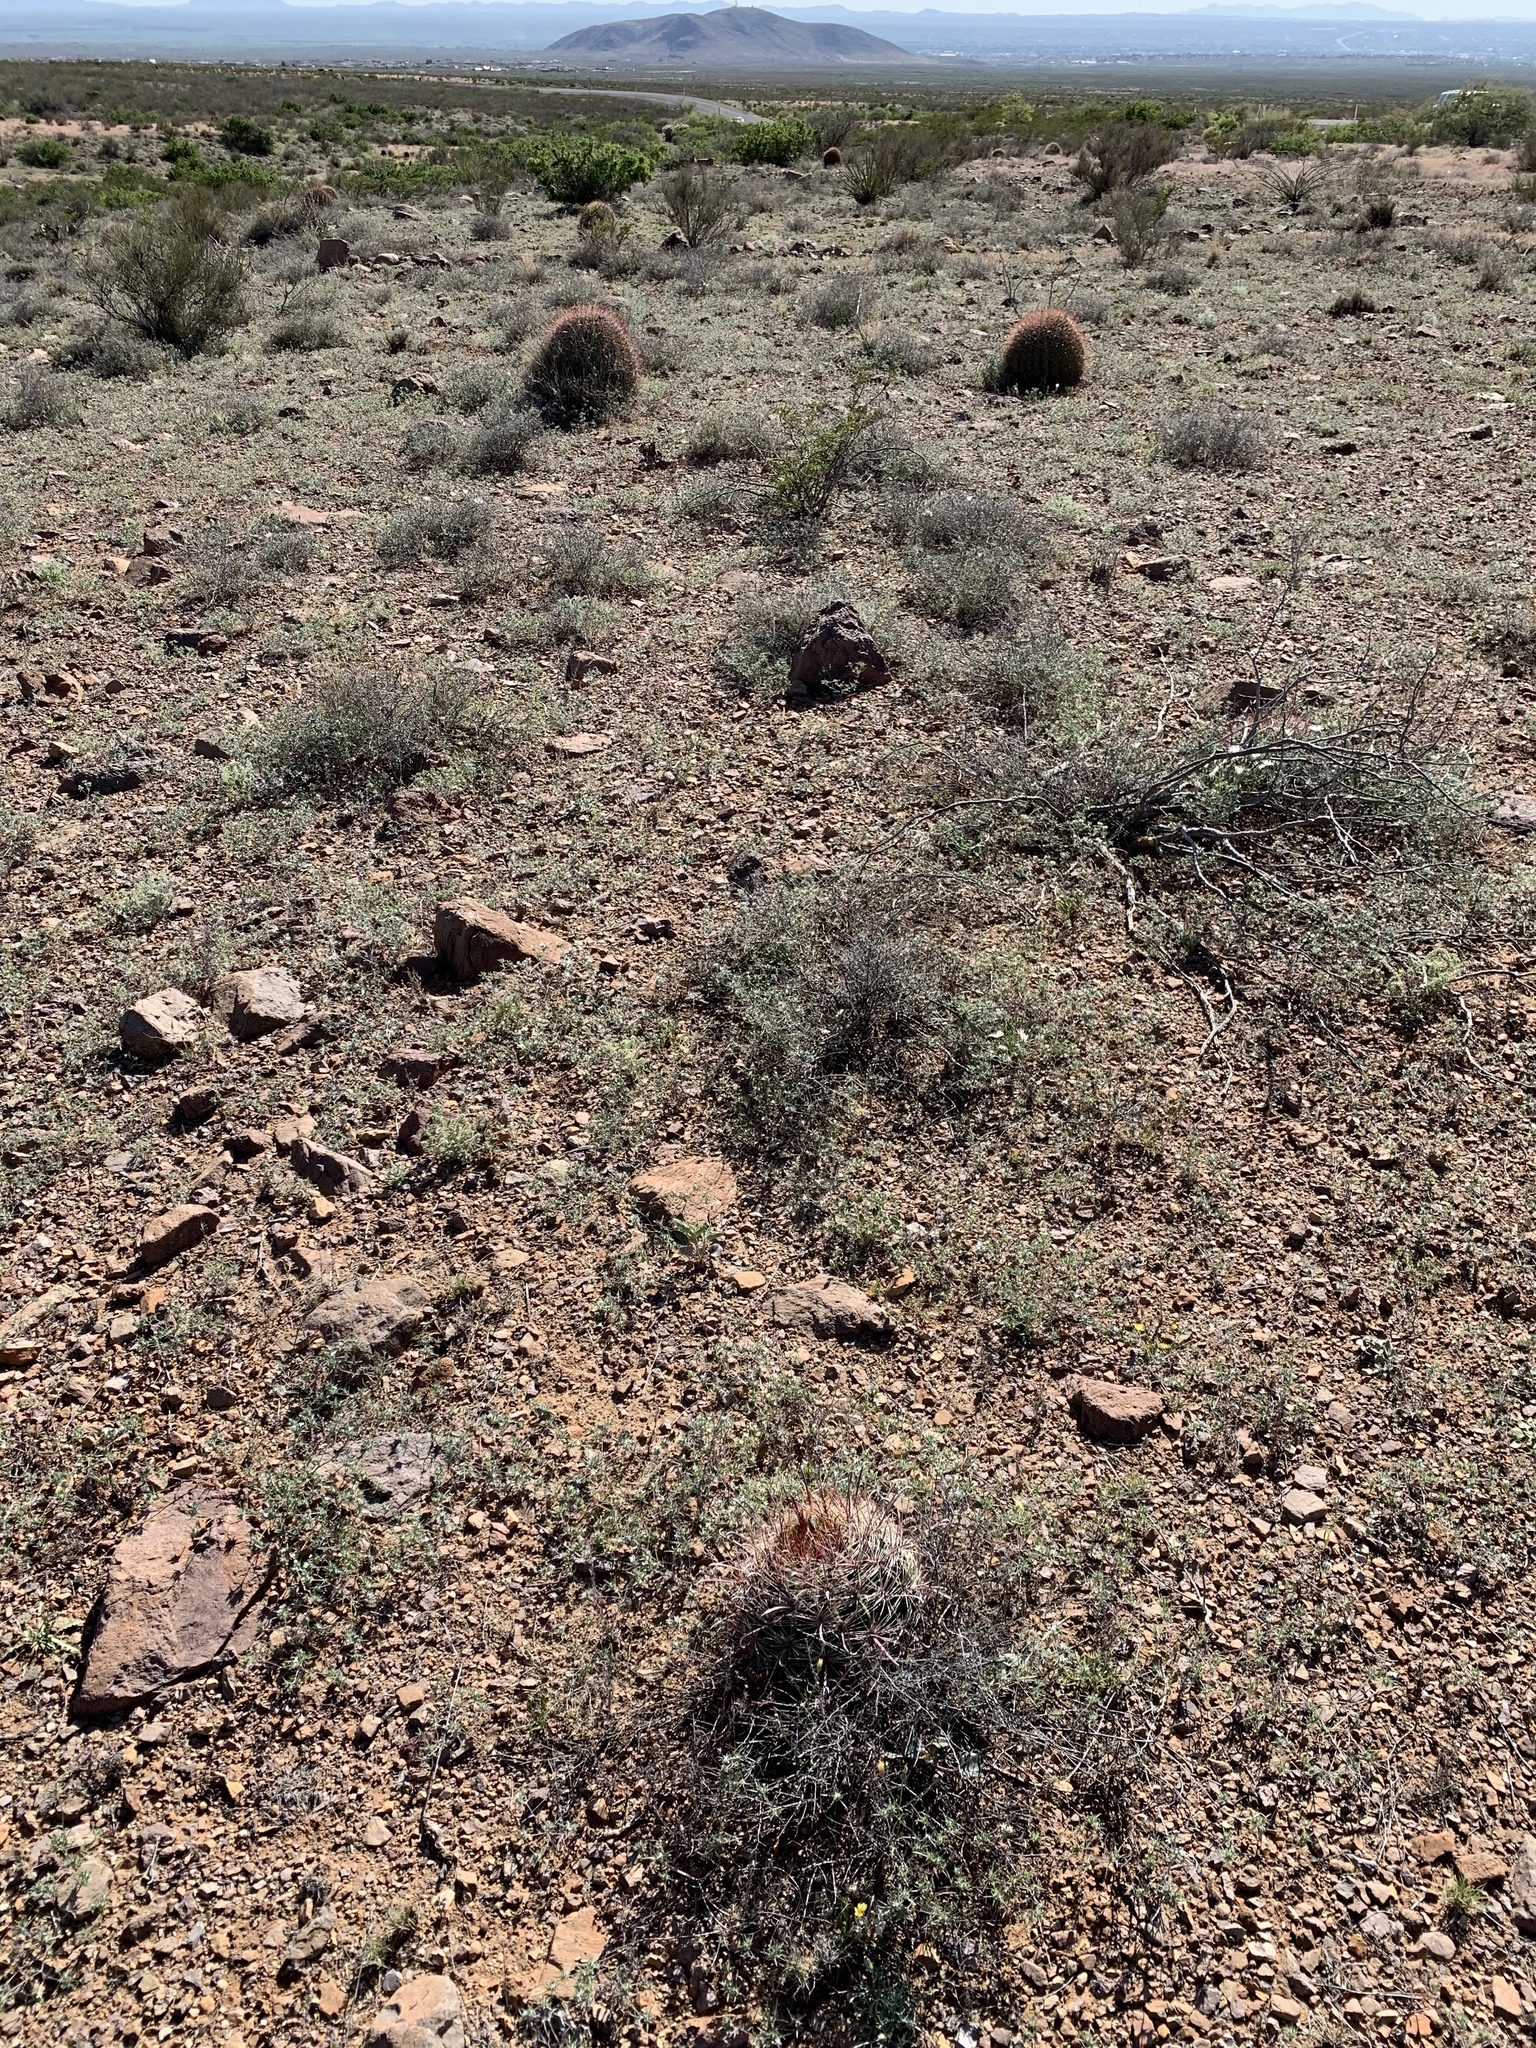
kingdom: Plantae
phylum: Tracheophyta
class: Magnoliopsida
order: Caryophyllales
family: Cactaceae
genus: Ferocactus
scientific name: Ferocactus wislizeni
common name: Candy barrel cactus
